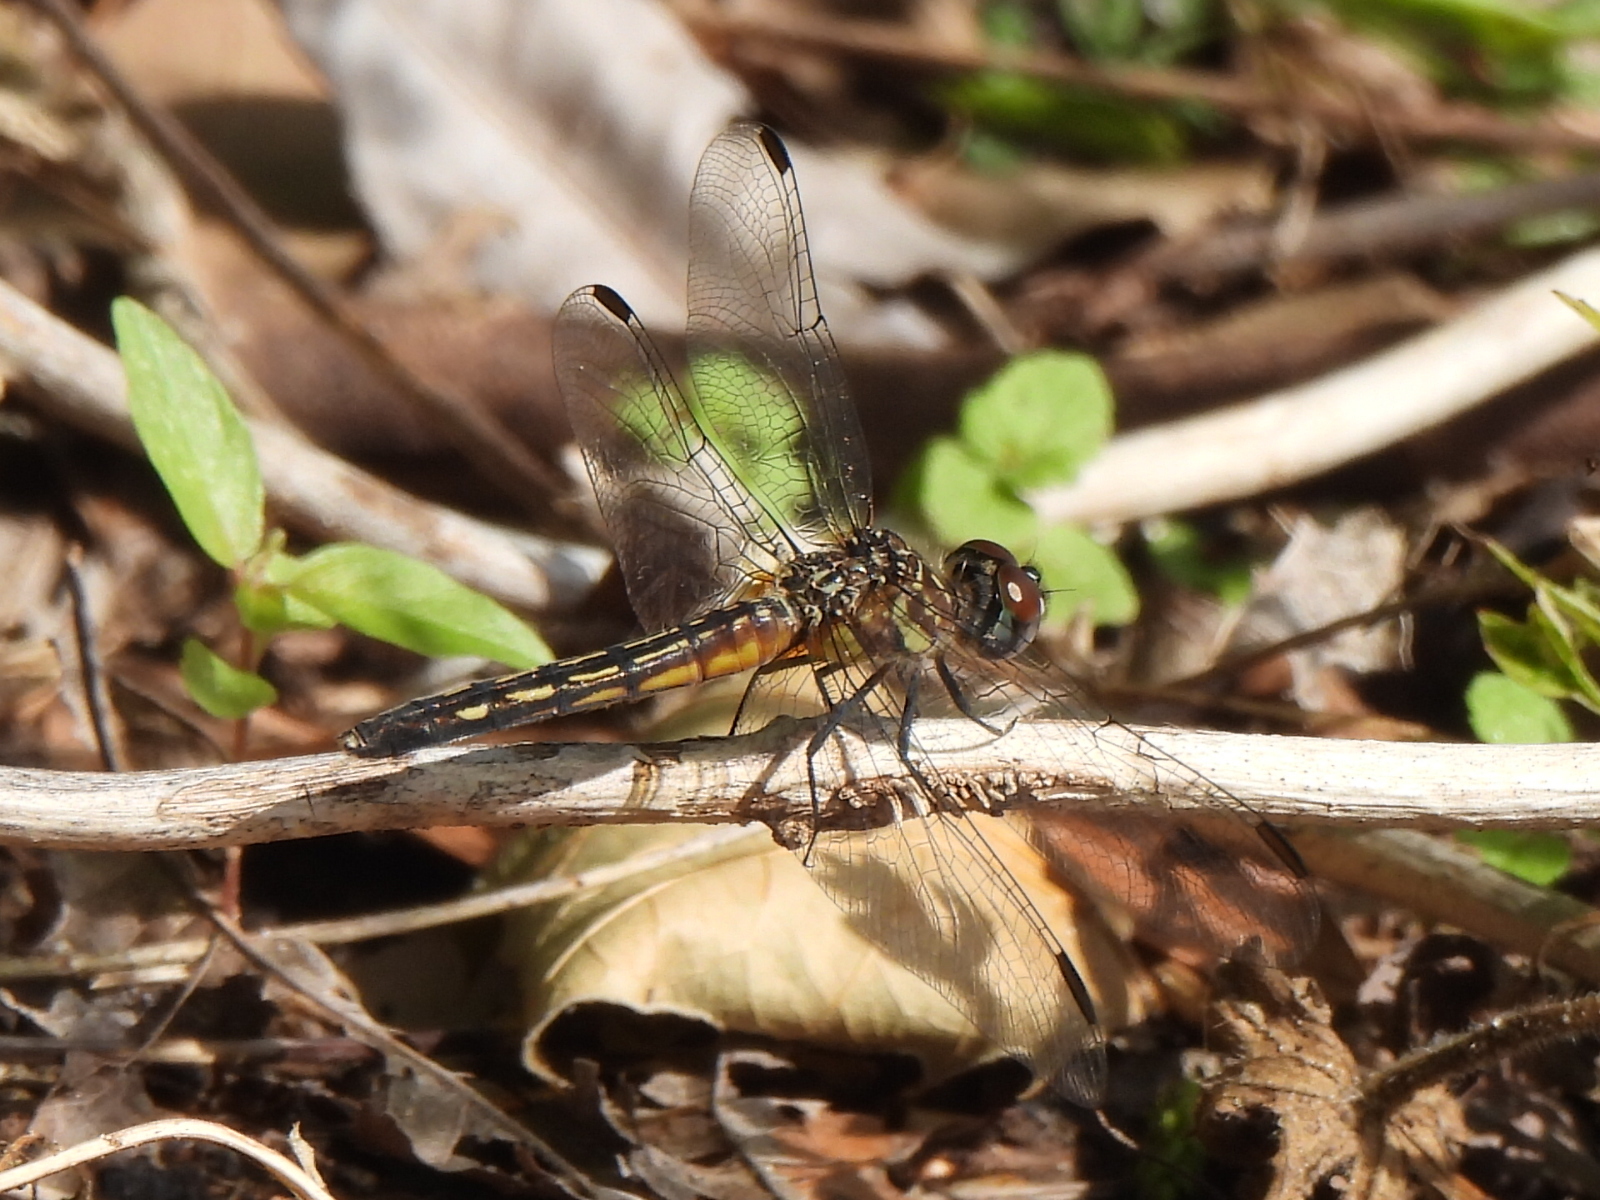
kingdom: Animalia
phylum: Arthropoda
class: Insecta
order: Odonata
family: Libellulidae
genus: Pachydiplax
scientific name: Pachydiplax longipennis
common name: Blue dasher
